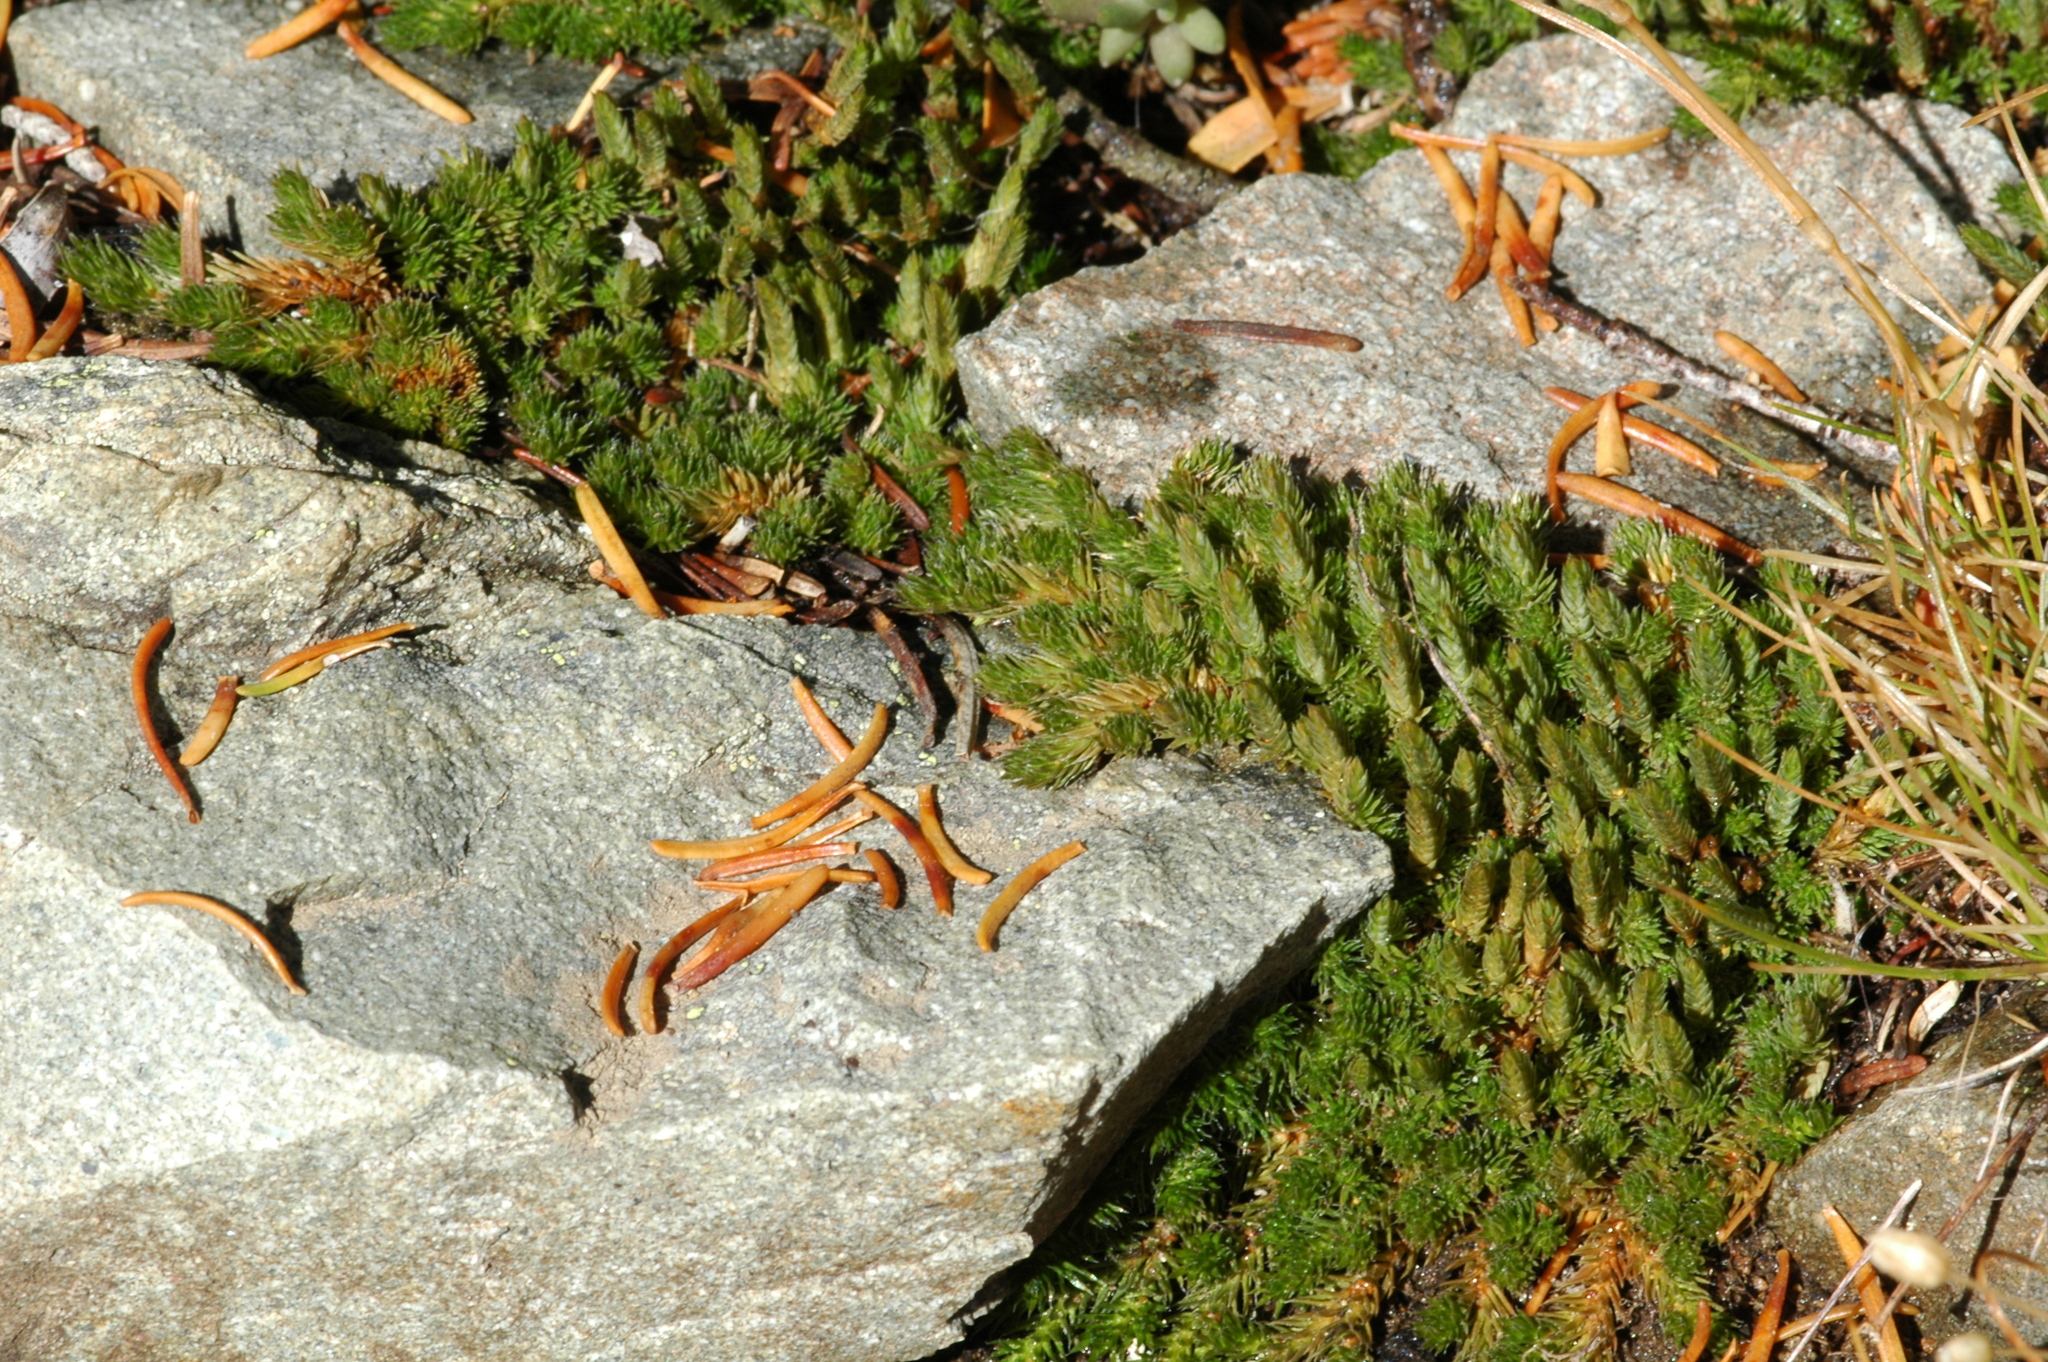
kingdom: Plantae
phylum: Tracheophyta
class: Lycopodiopsida
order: Selaginellales
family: Selaginellaceae
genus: Selaginella
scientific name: Selaginella densa
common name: Mountain spike-moss
